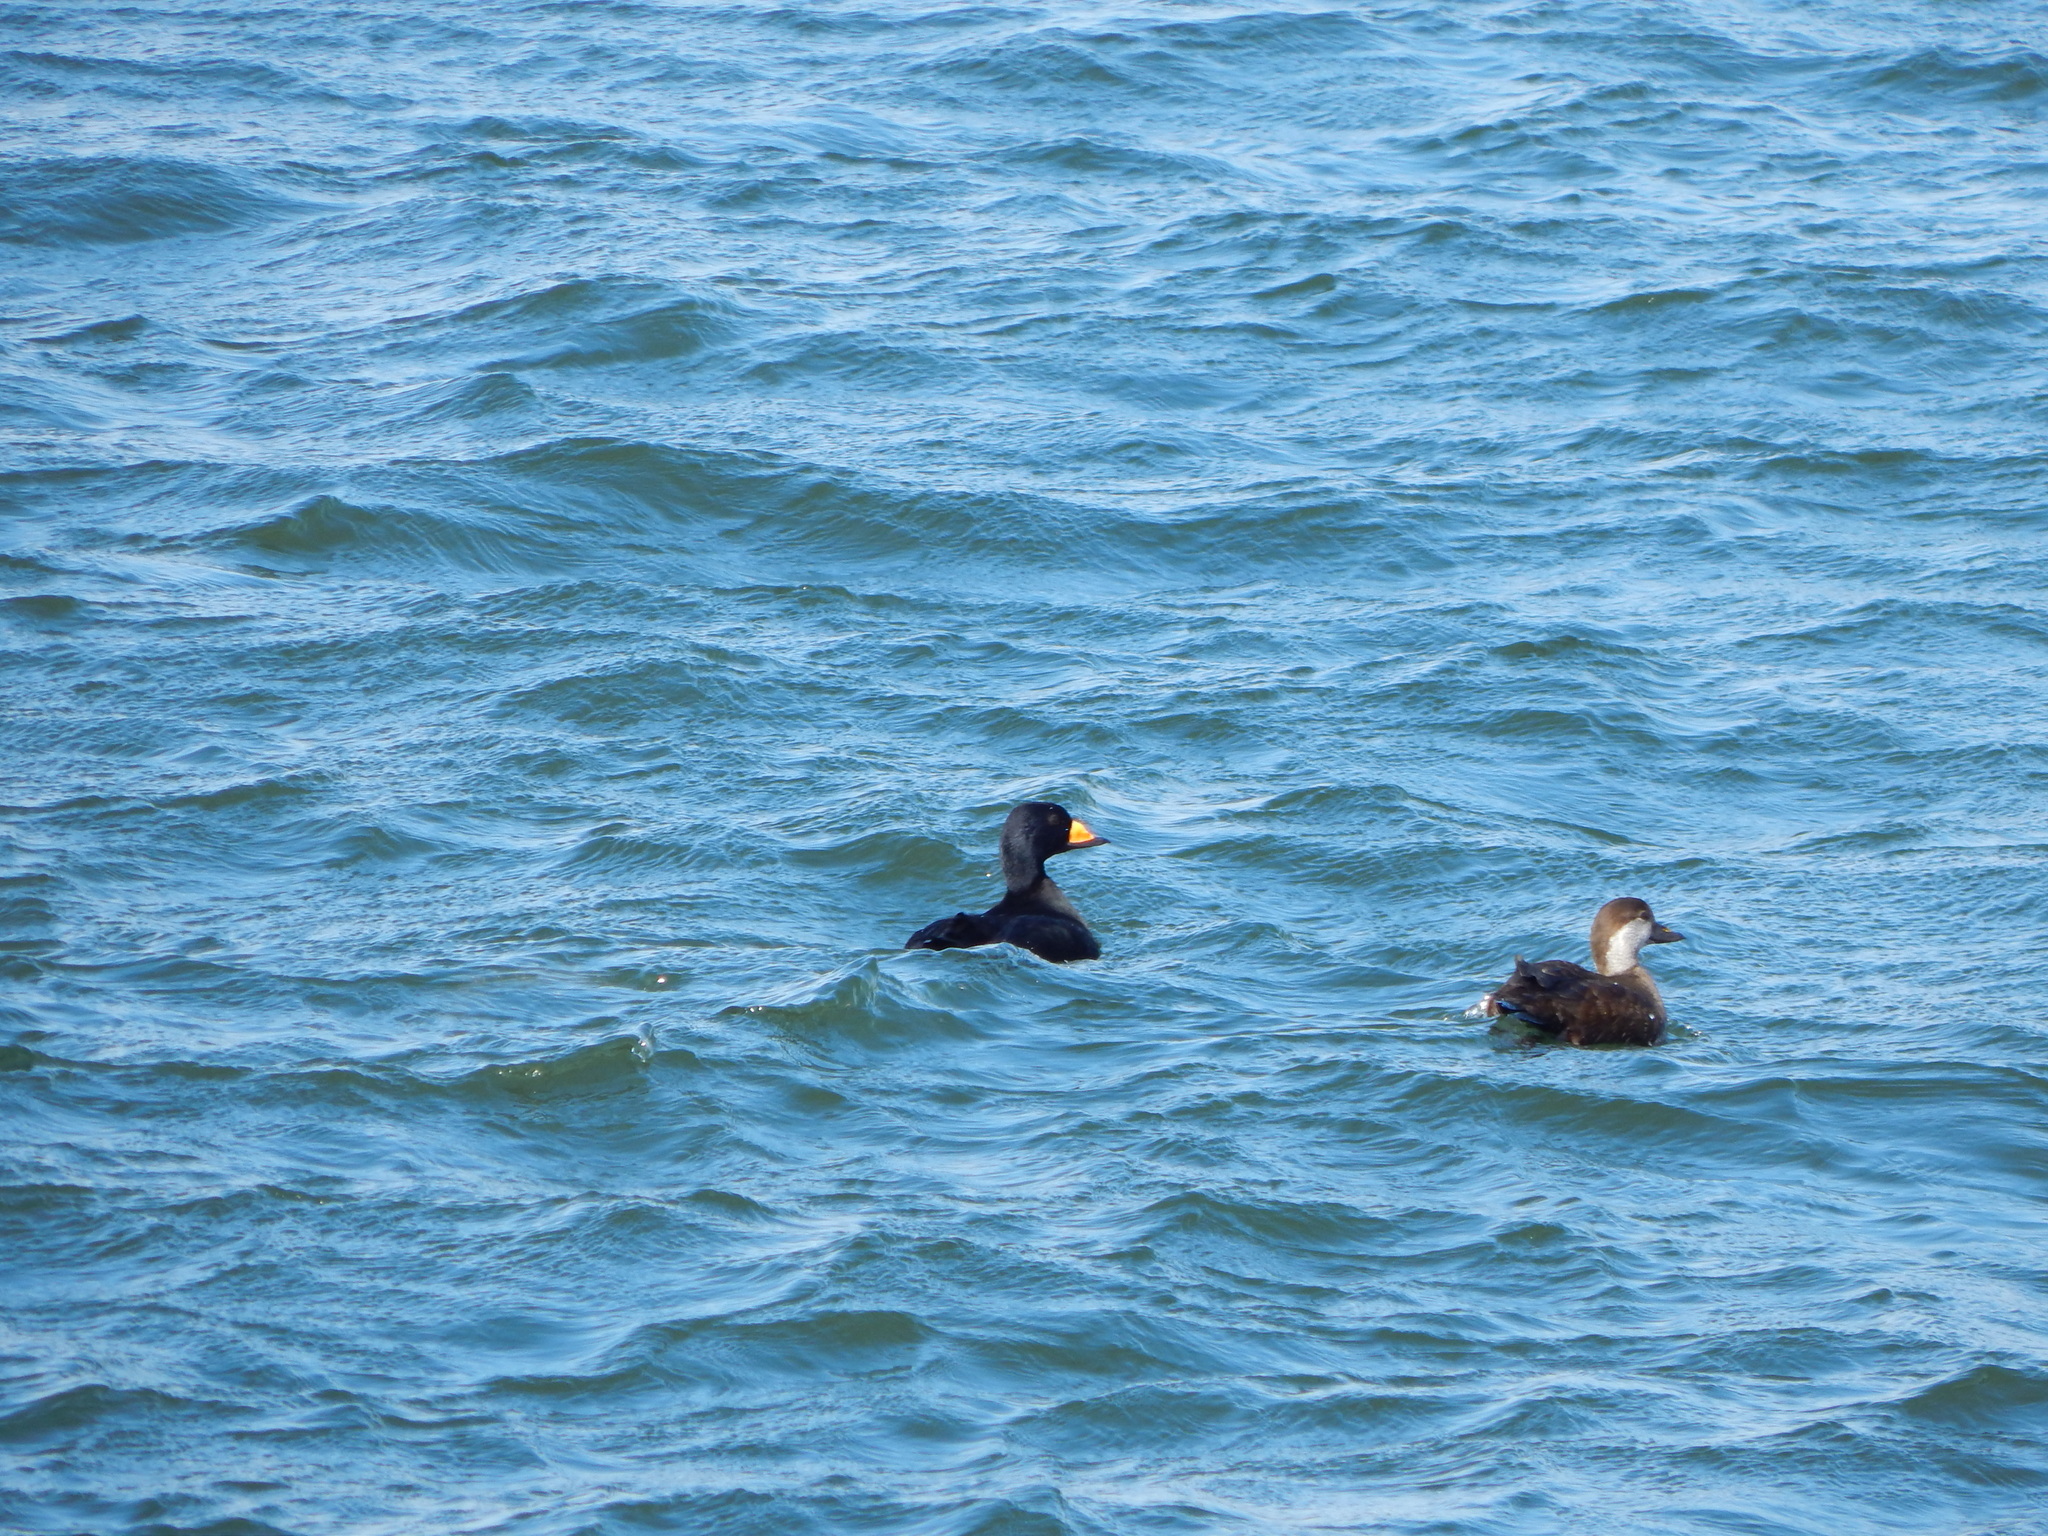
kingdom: Animalia
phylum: Chordata
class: Aves
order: Anseriformes
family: Anatidae
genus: Melanitta
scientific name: Melanitta americana
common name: Black scoter
